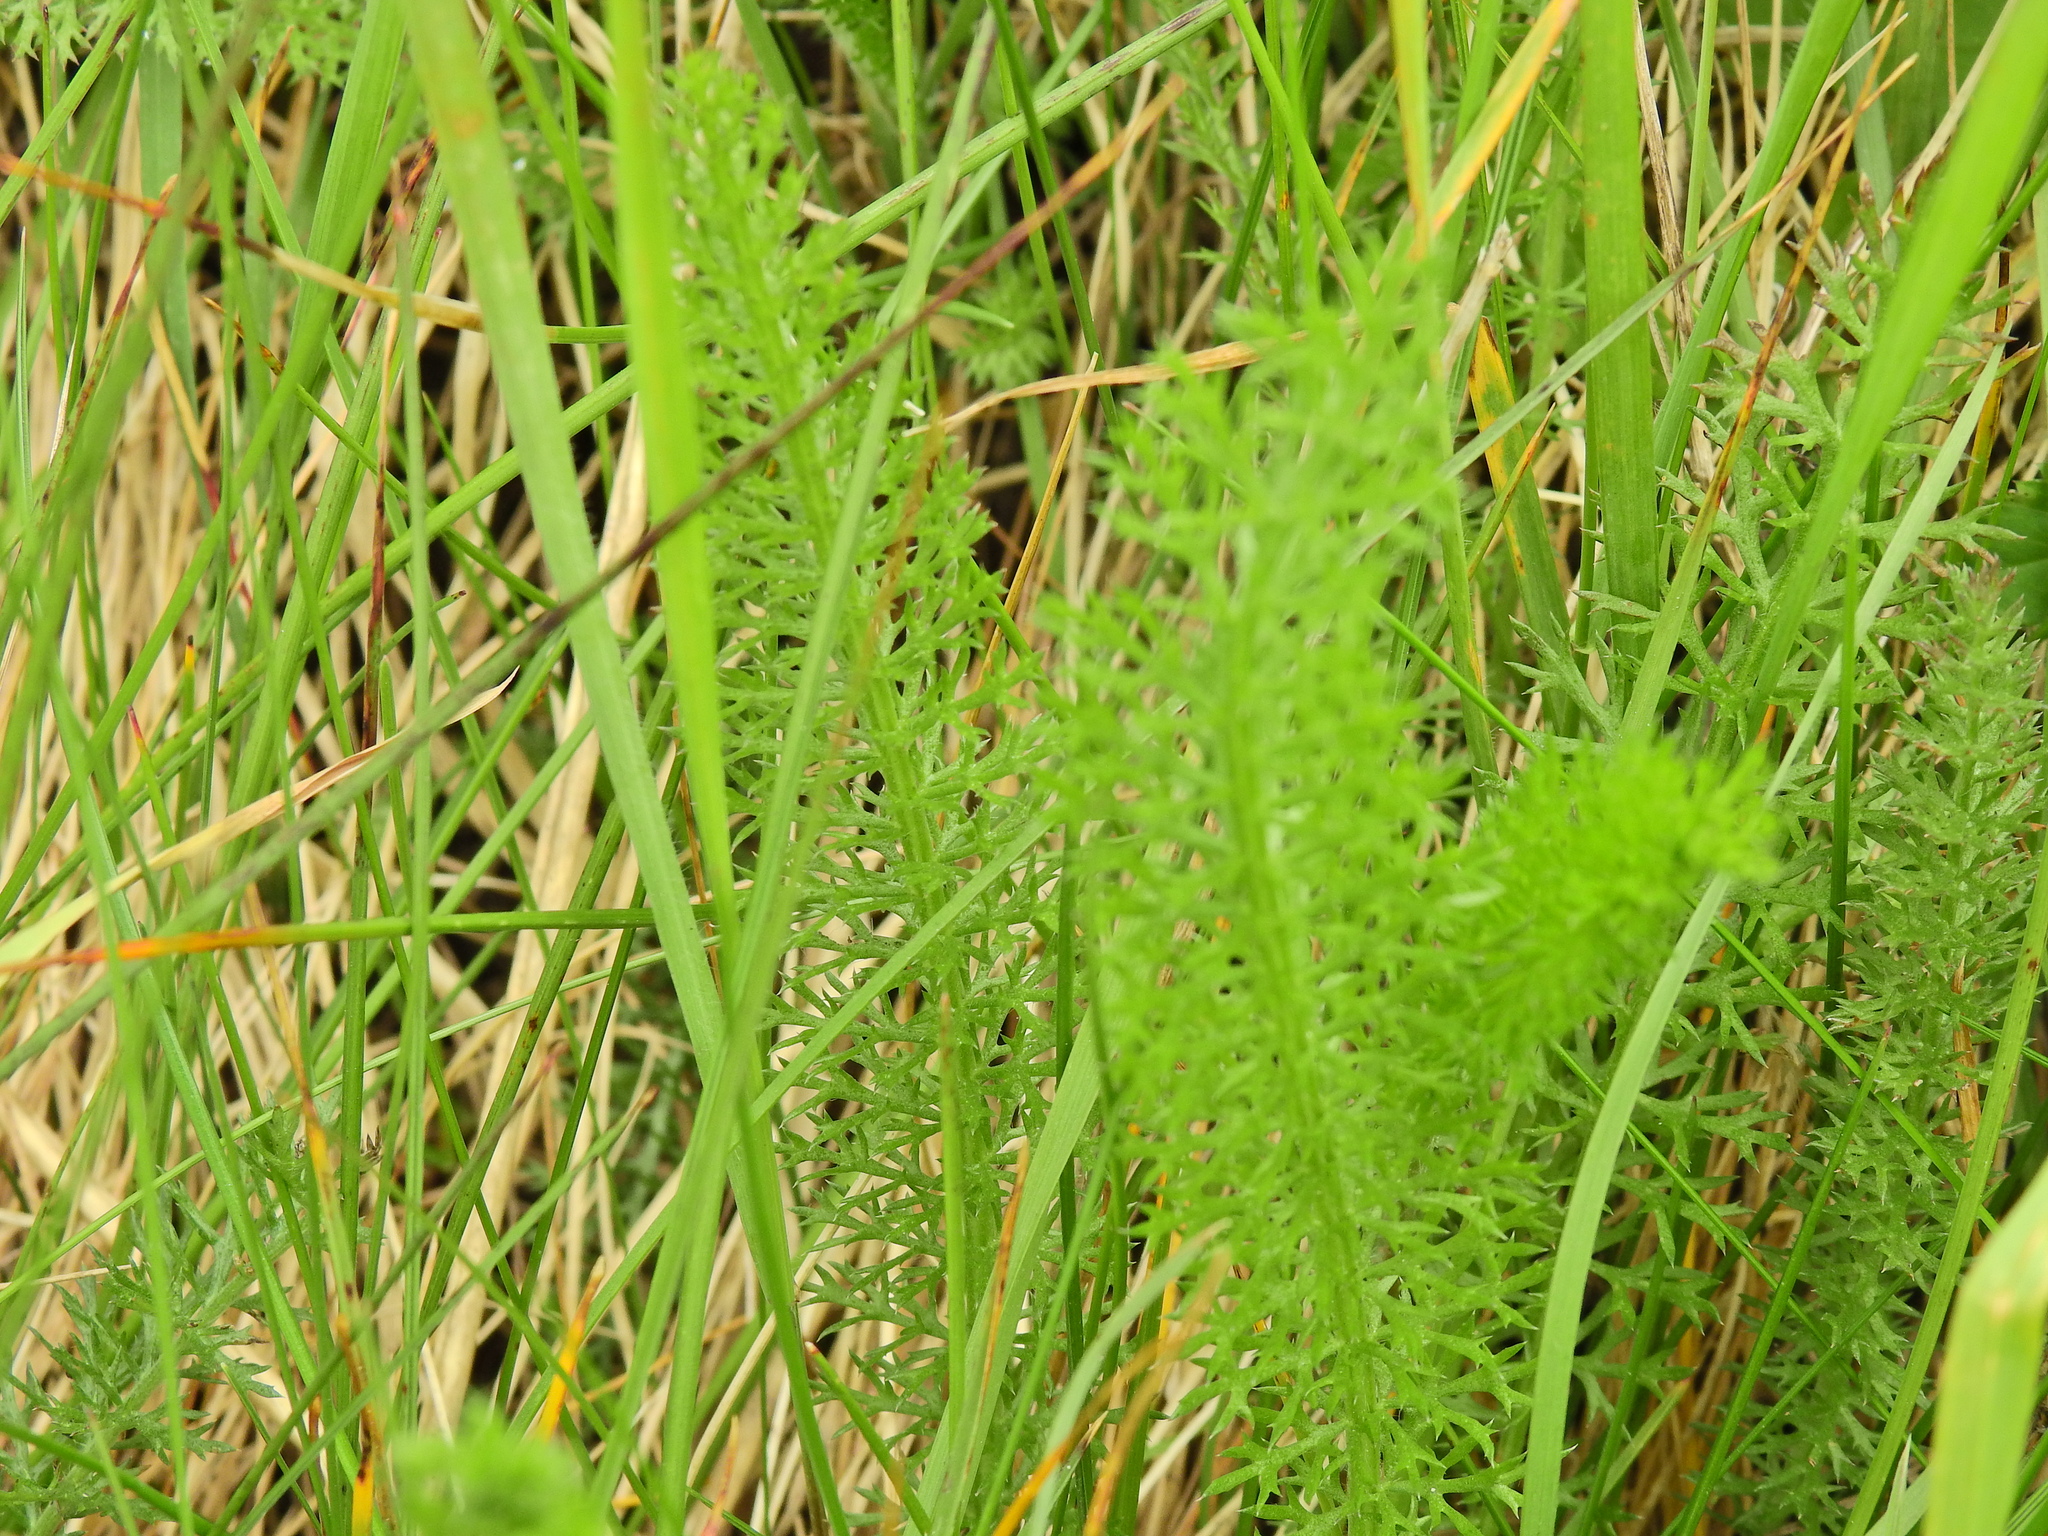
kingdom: Plantae
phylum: Tracheophyta
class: Magnoliopsida
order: Asterales
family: Asteraceae
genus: Achillea
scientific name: Achillea millefolium
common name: Yarrow
